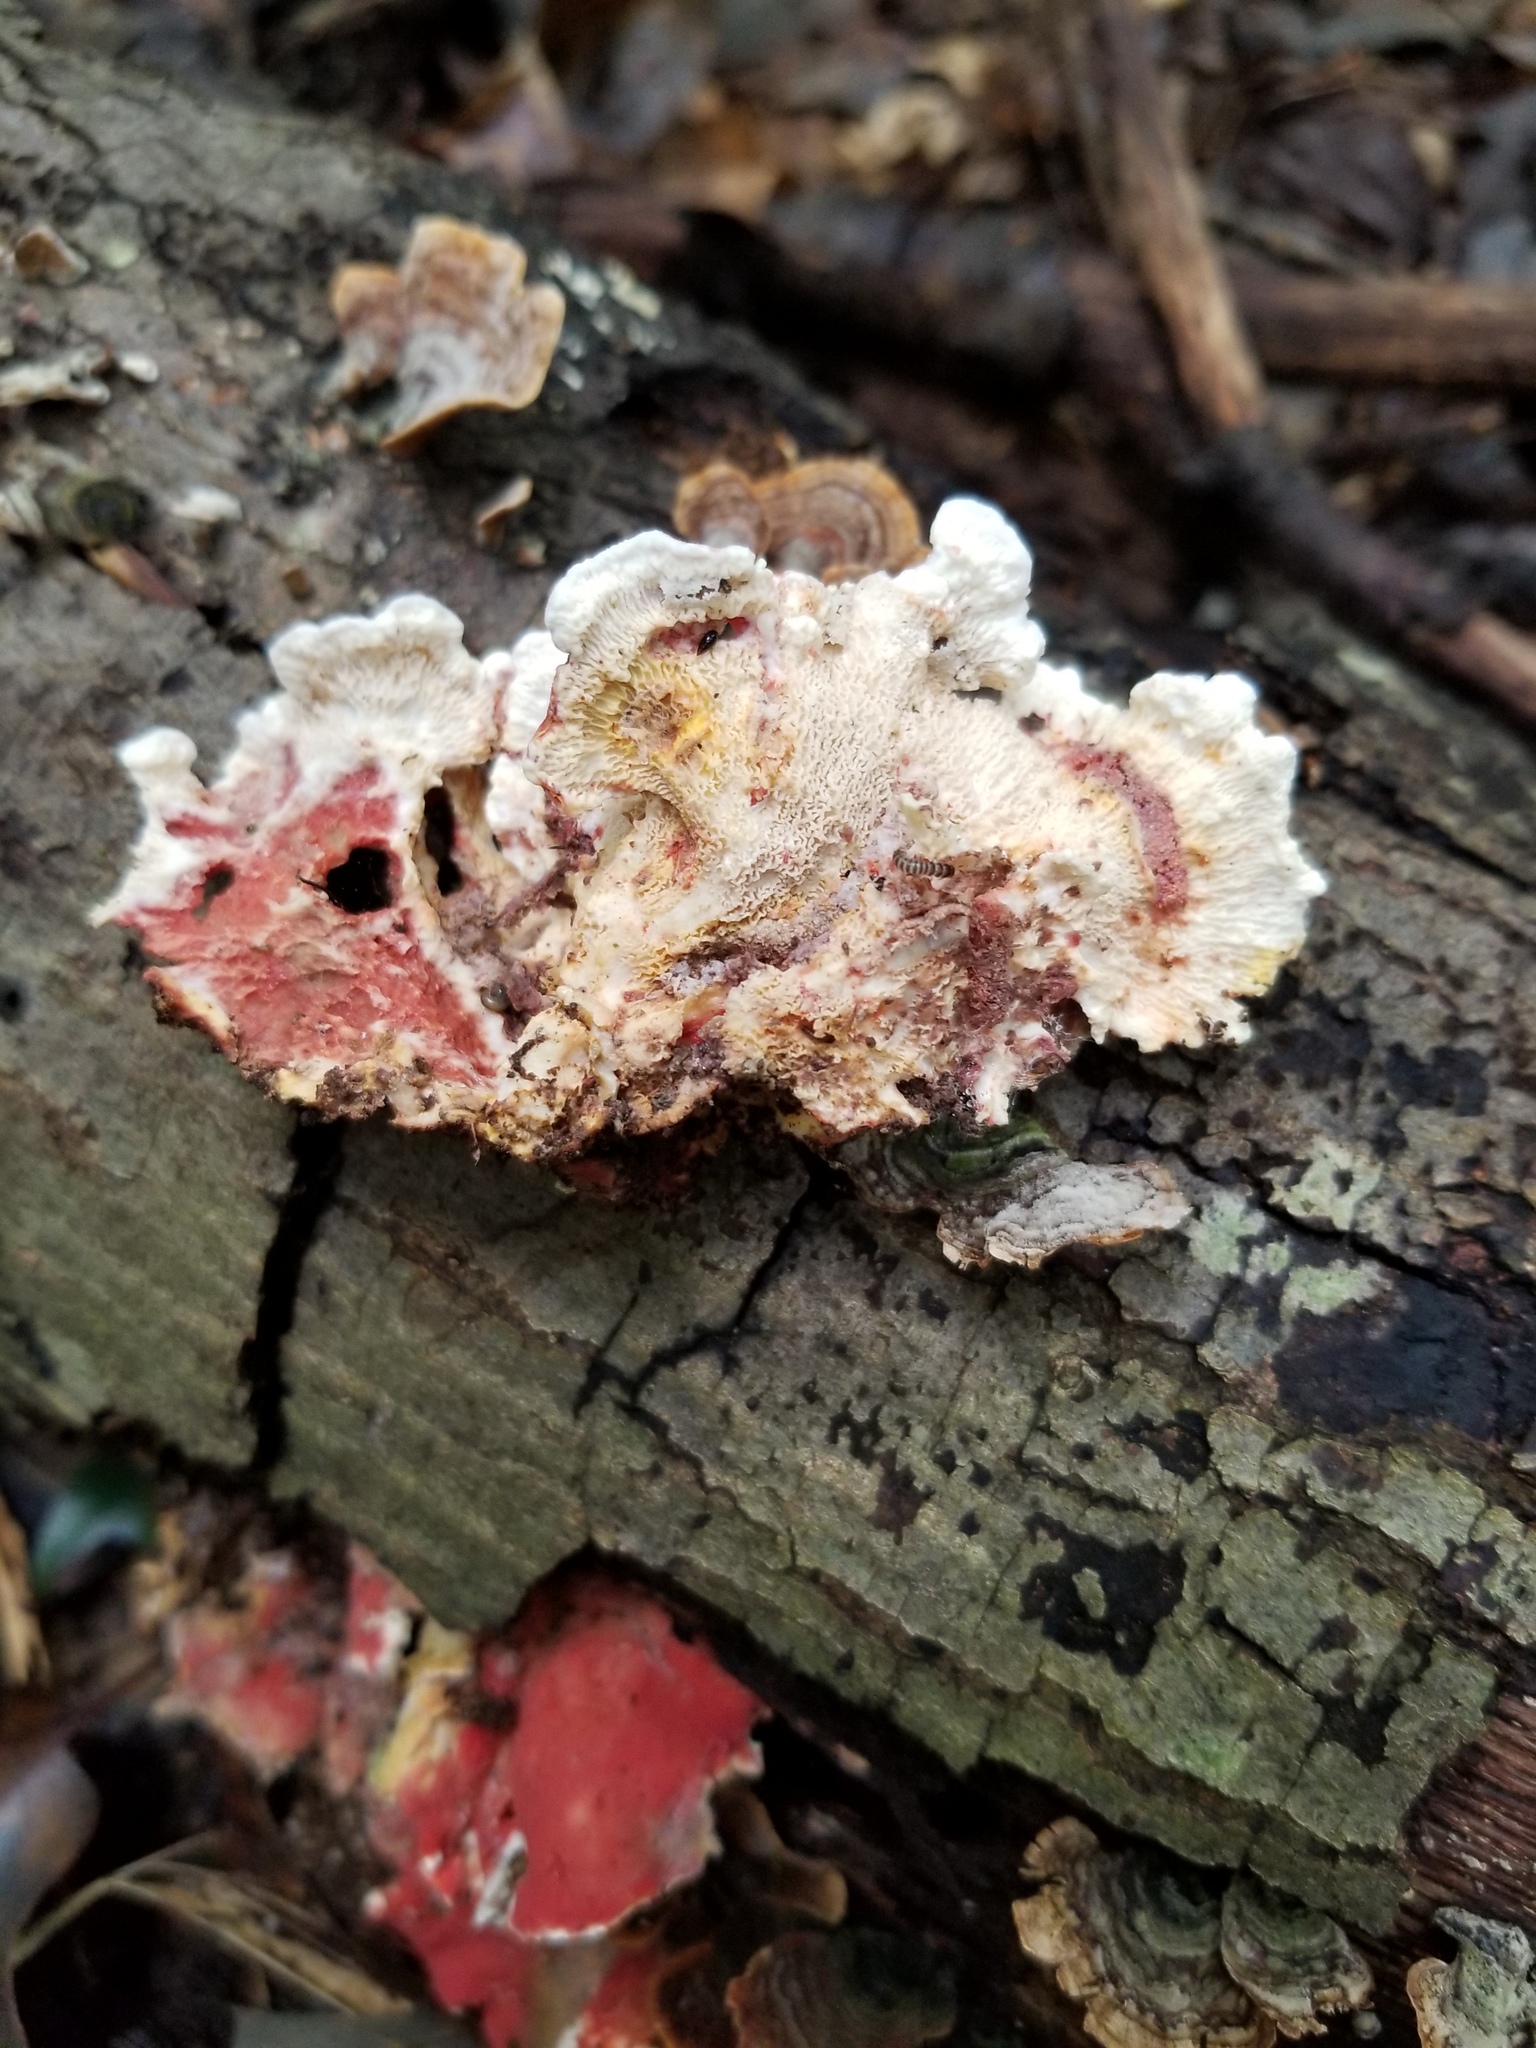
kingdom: Fungi
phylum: Basidiomycota
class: Agaricomycetes
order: Polyporales
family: Irpicaceae
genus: Byssomerulius
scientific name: Byssomerulius incarnatus
